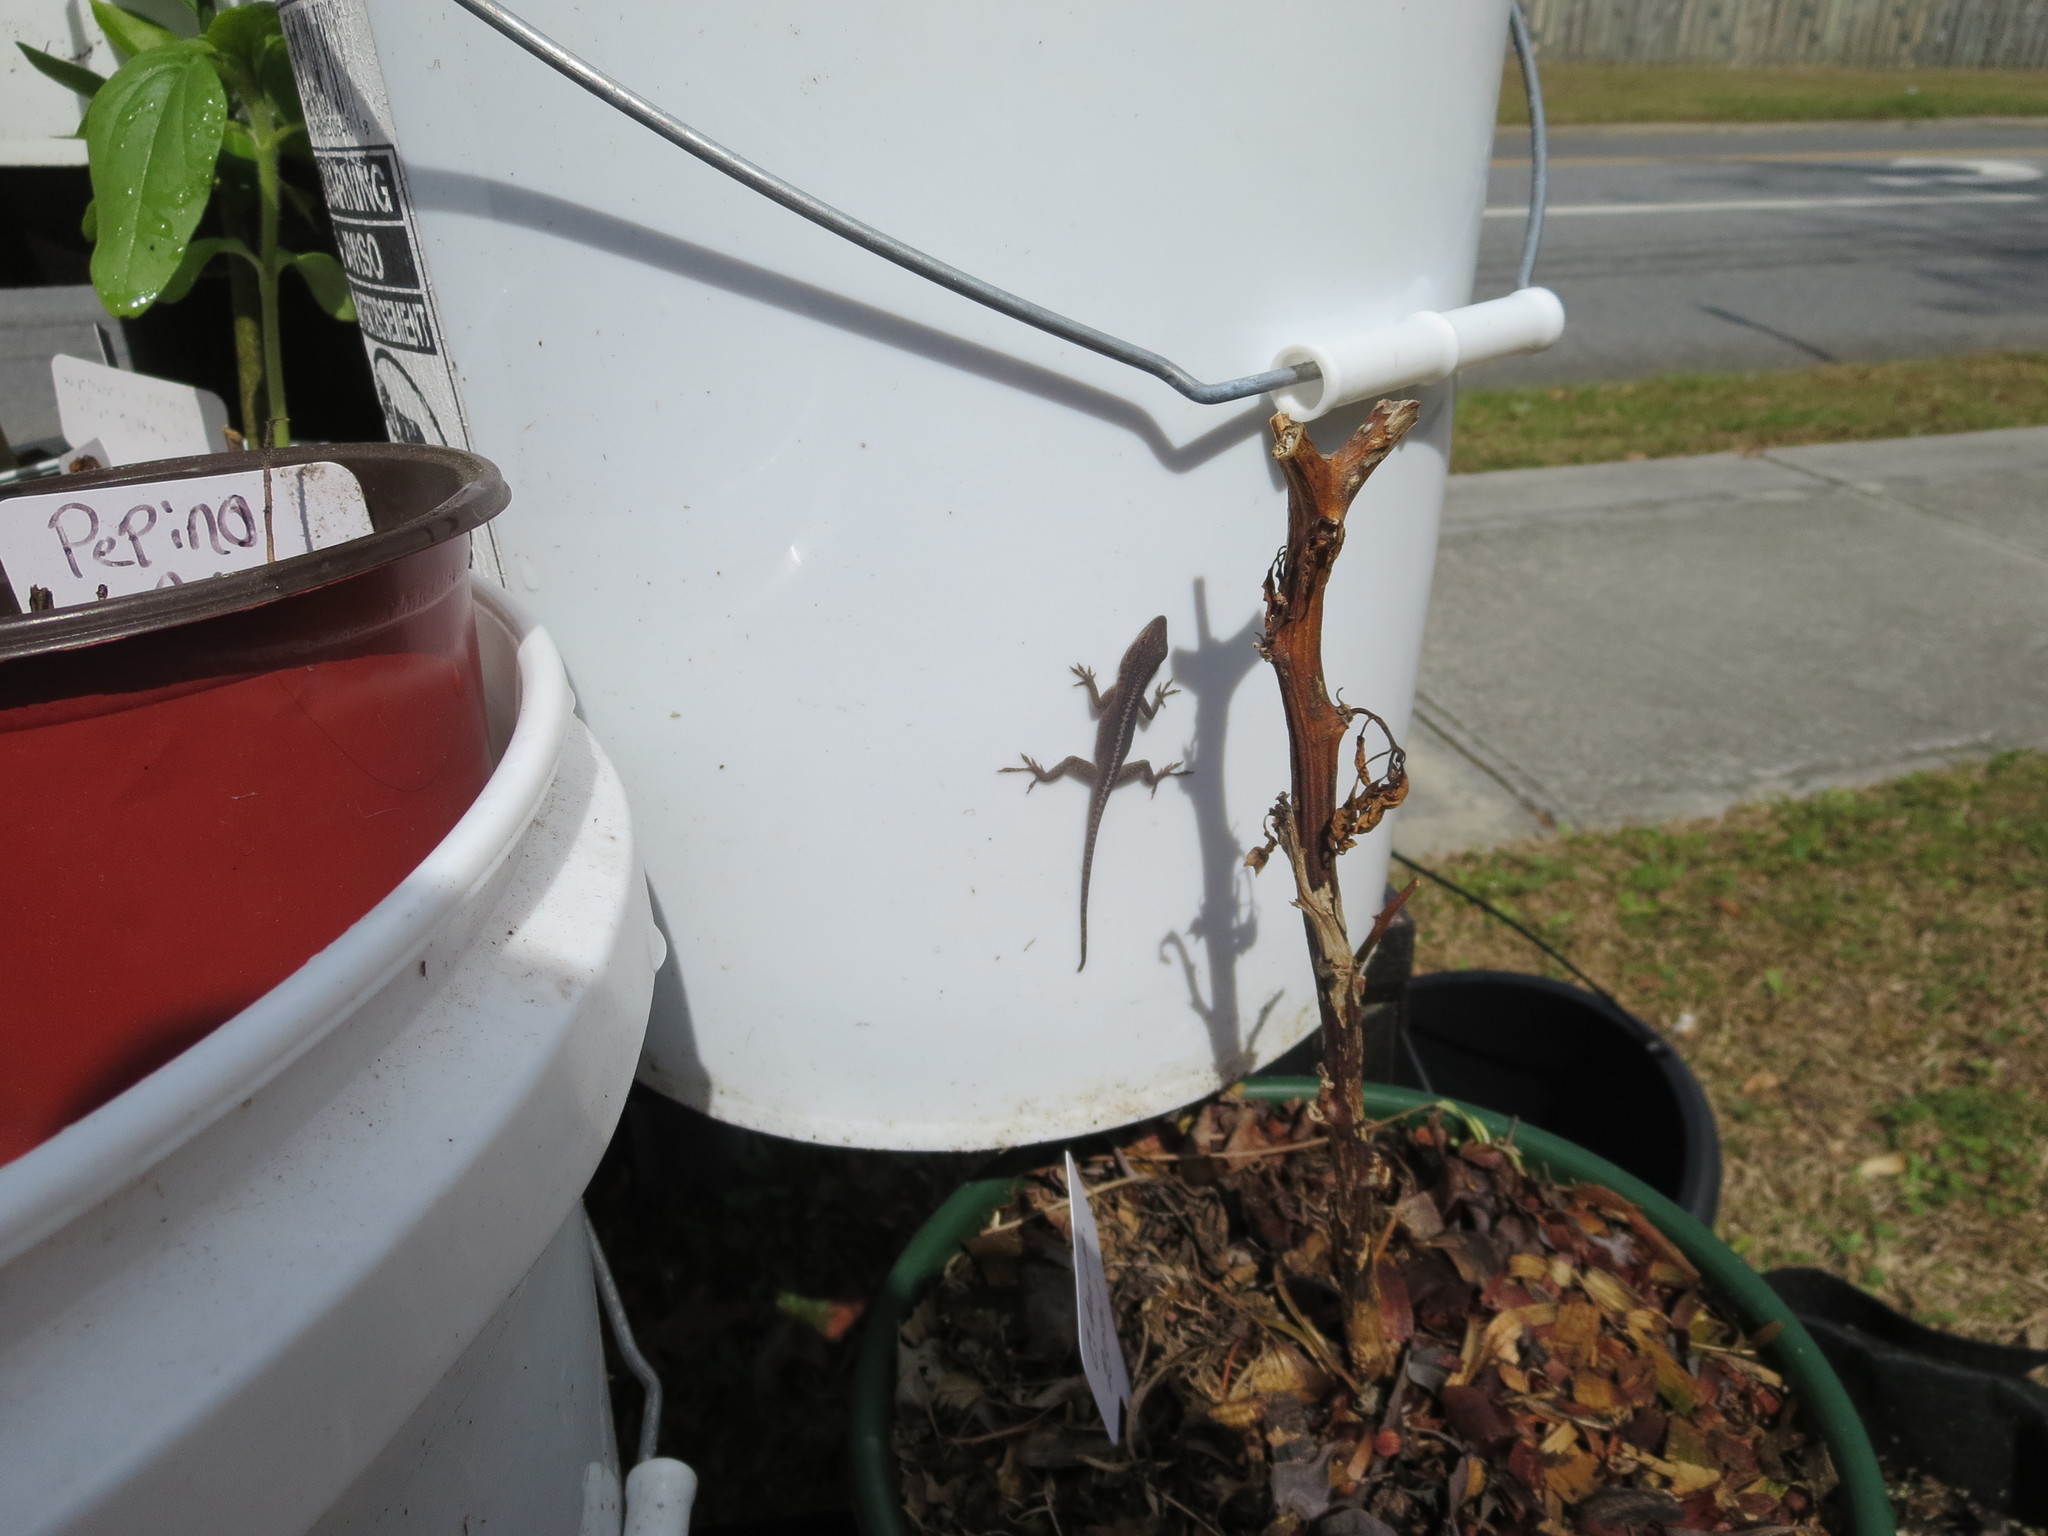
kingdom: Animalia
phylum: Chordata
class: Squamata
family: Dactyloidae
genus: Anolis
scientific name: Anolis carolinensis
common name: Green anole
